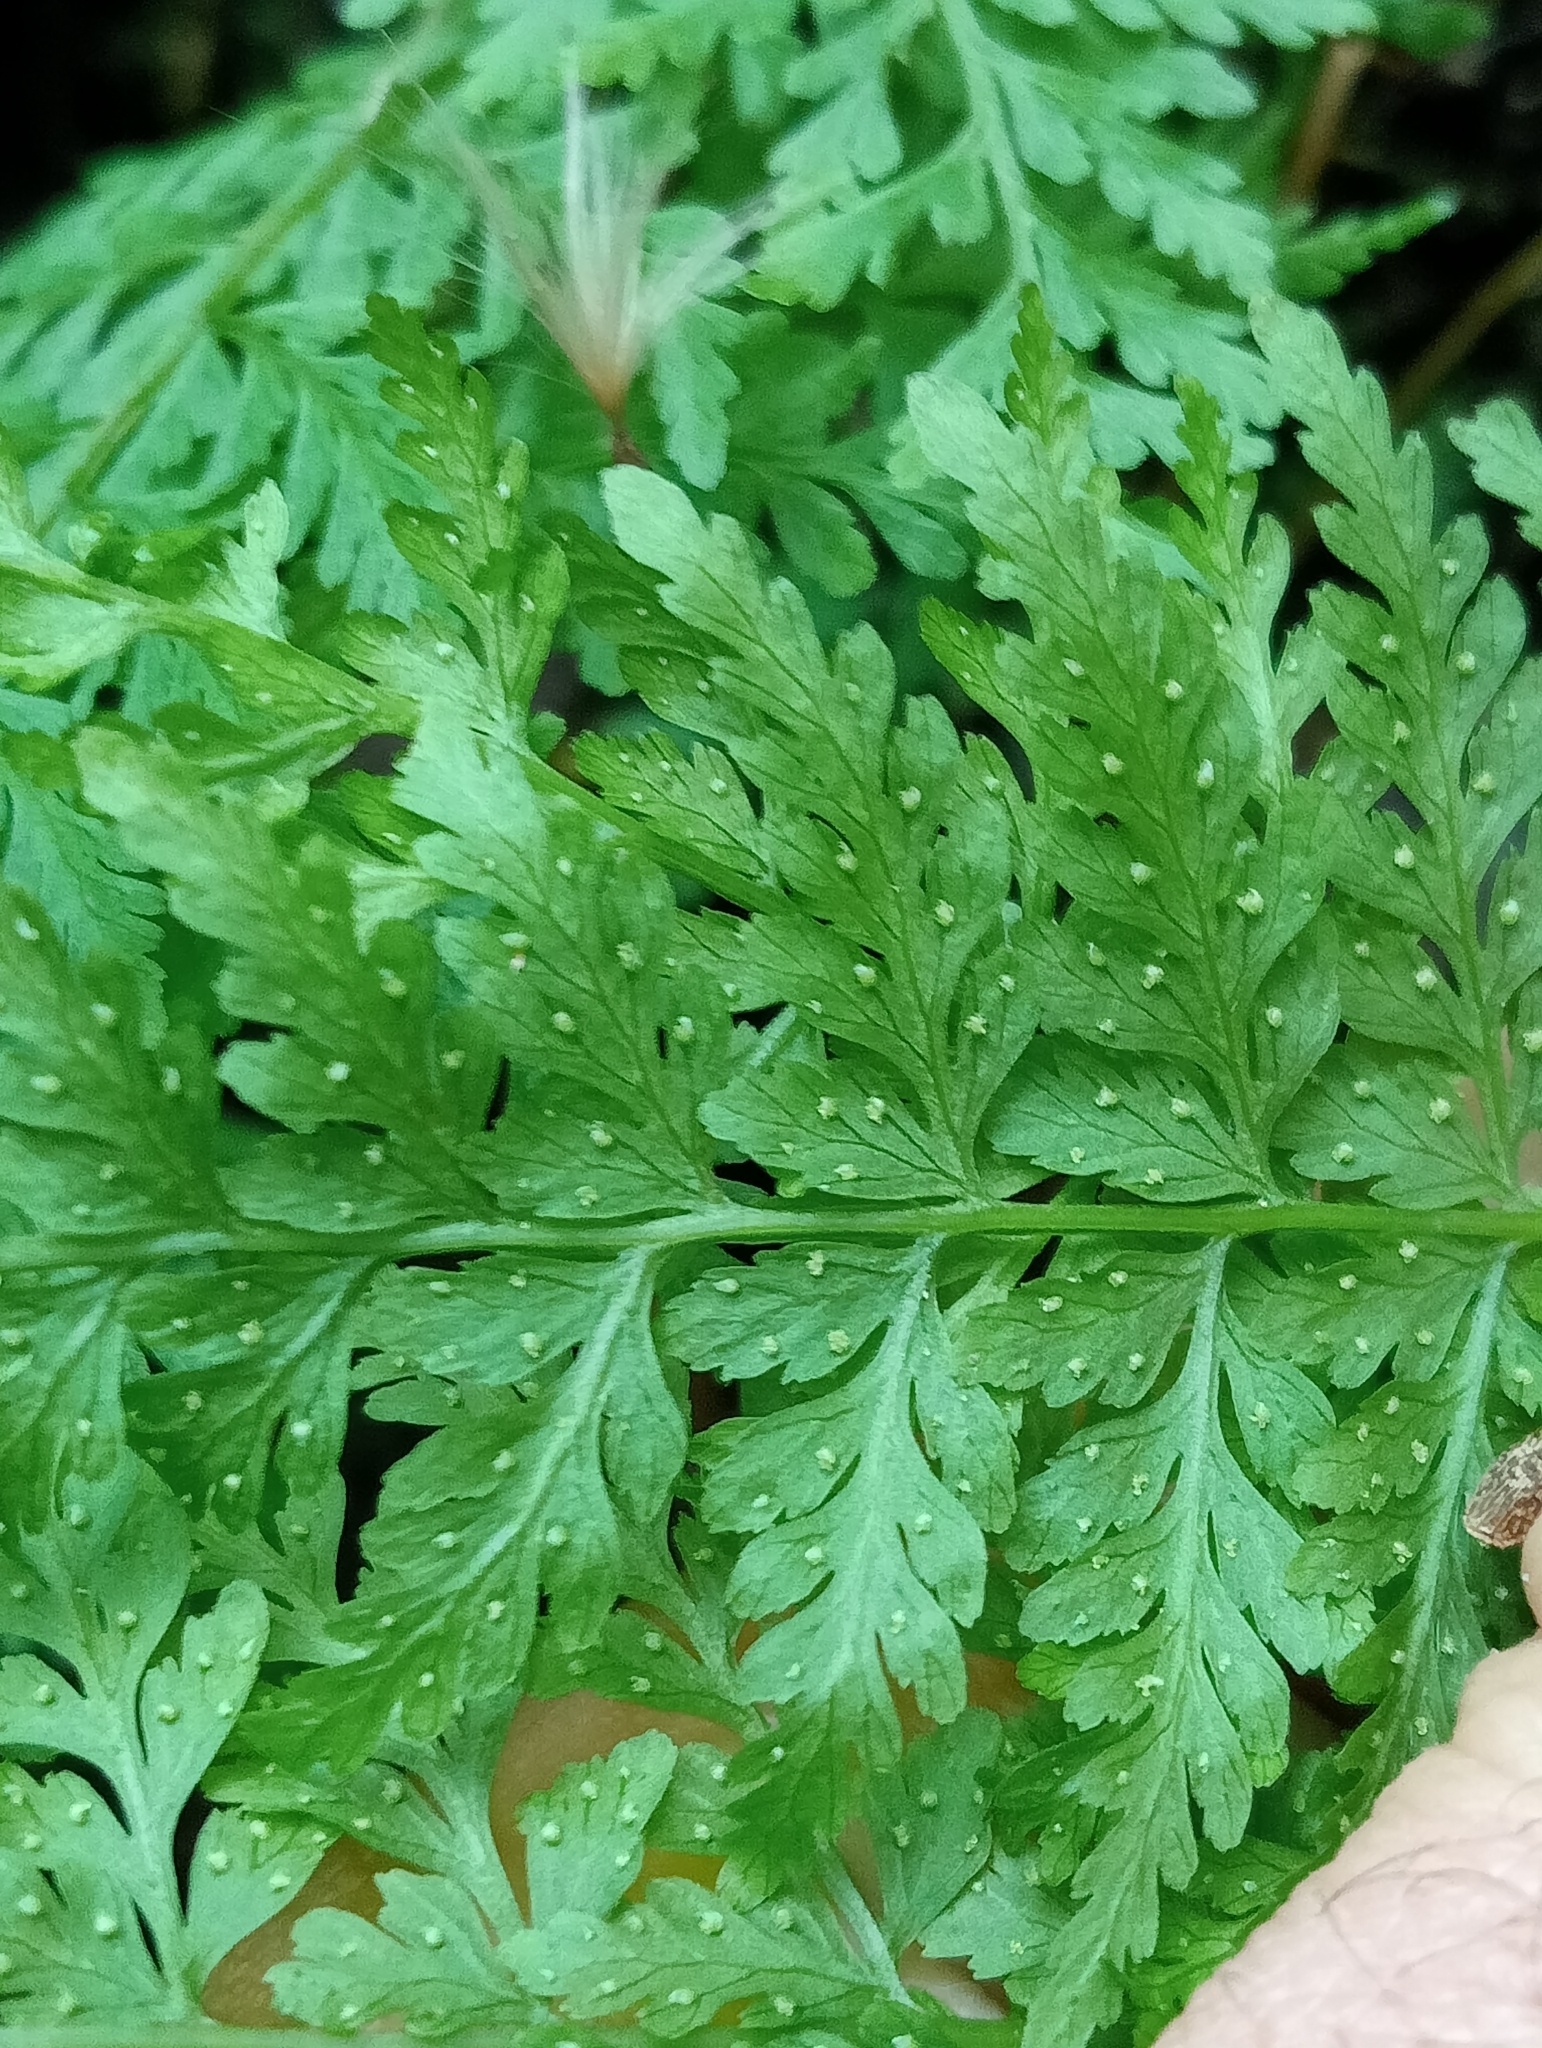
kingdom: Plantae
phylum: Tracheophyta
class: Polypodiopsida
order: Polypodiales
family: Cystopteridaceae
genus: Cystopteris
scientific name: Cystopteris fragilis
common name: Brittle bladder fern
